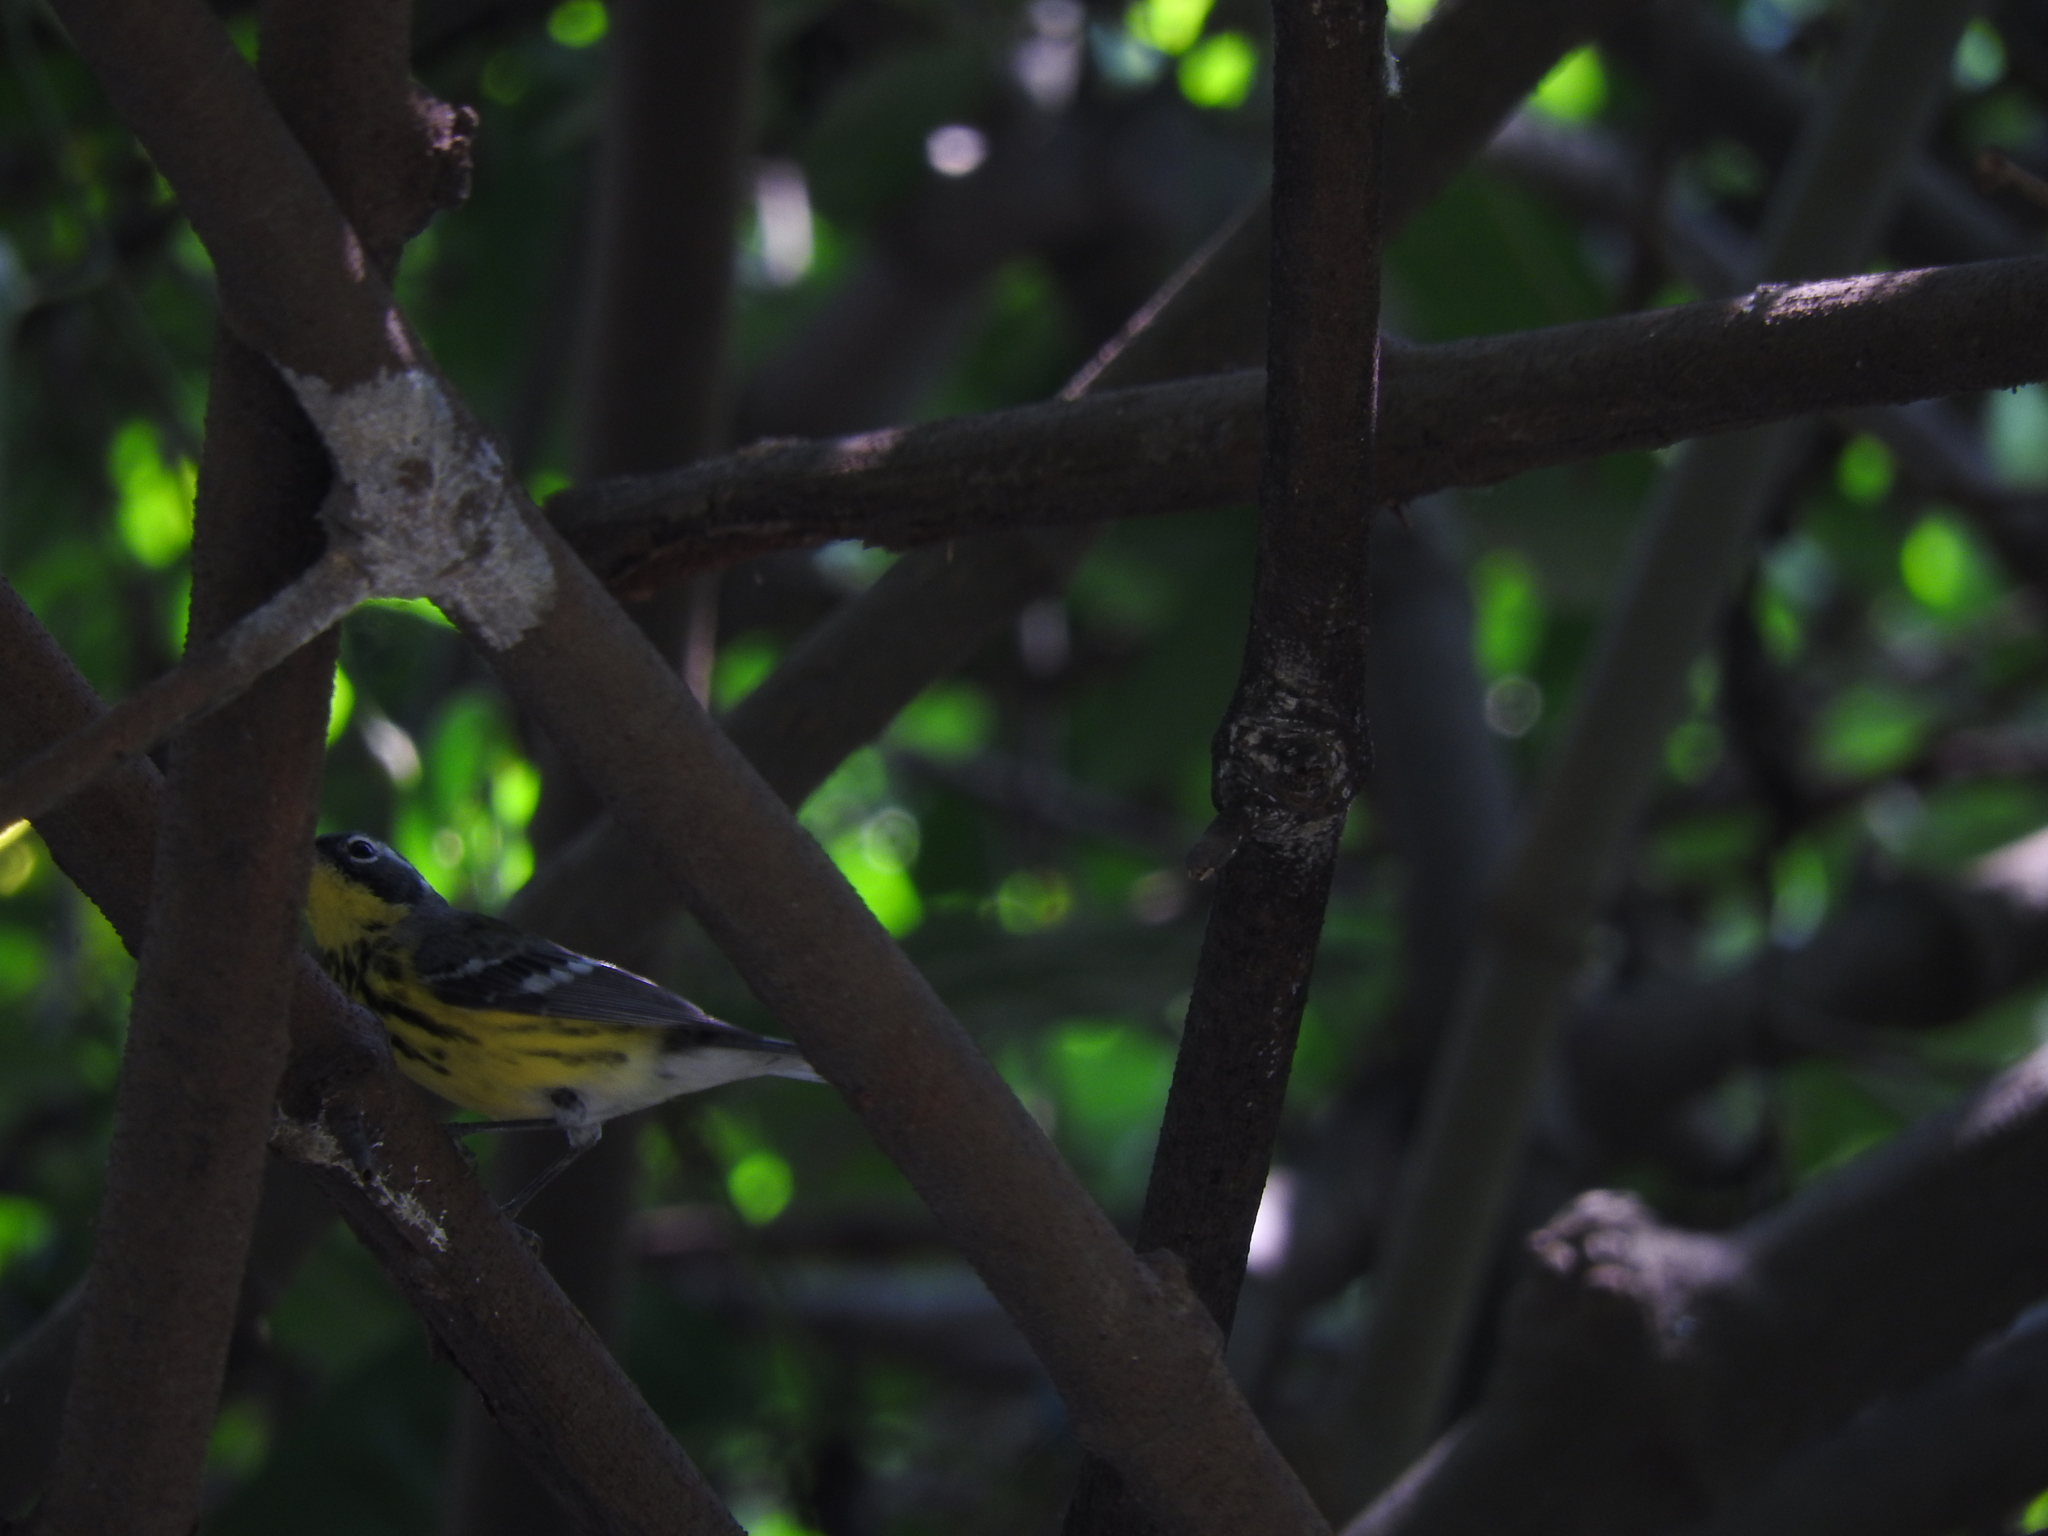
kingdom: Animalia
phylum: Chordata
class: Aves
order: Passeriformes
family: Parulidae
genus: Setophaga
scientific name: Setophaga magnolia
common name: Magnolia warbler
